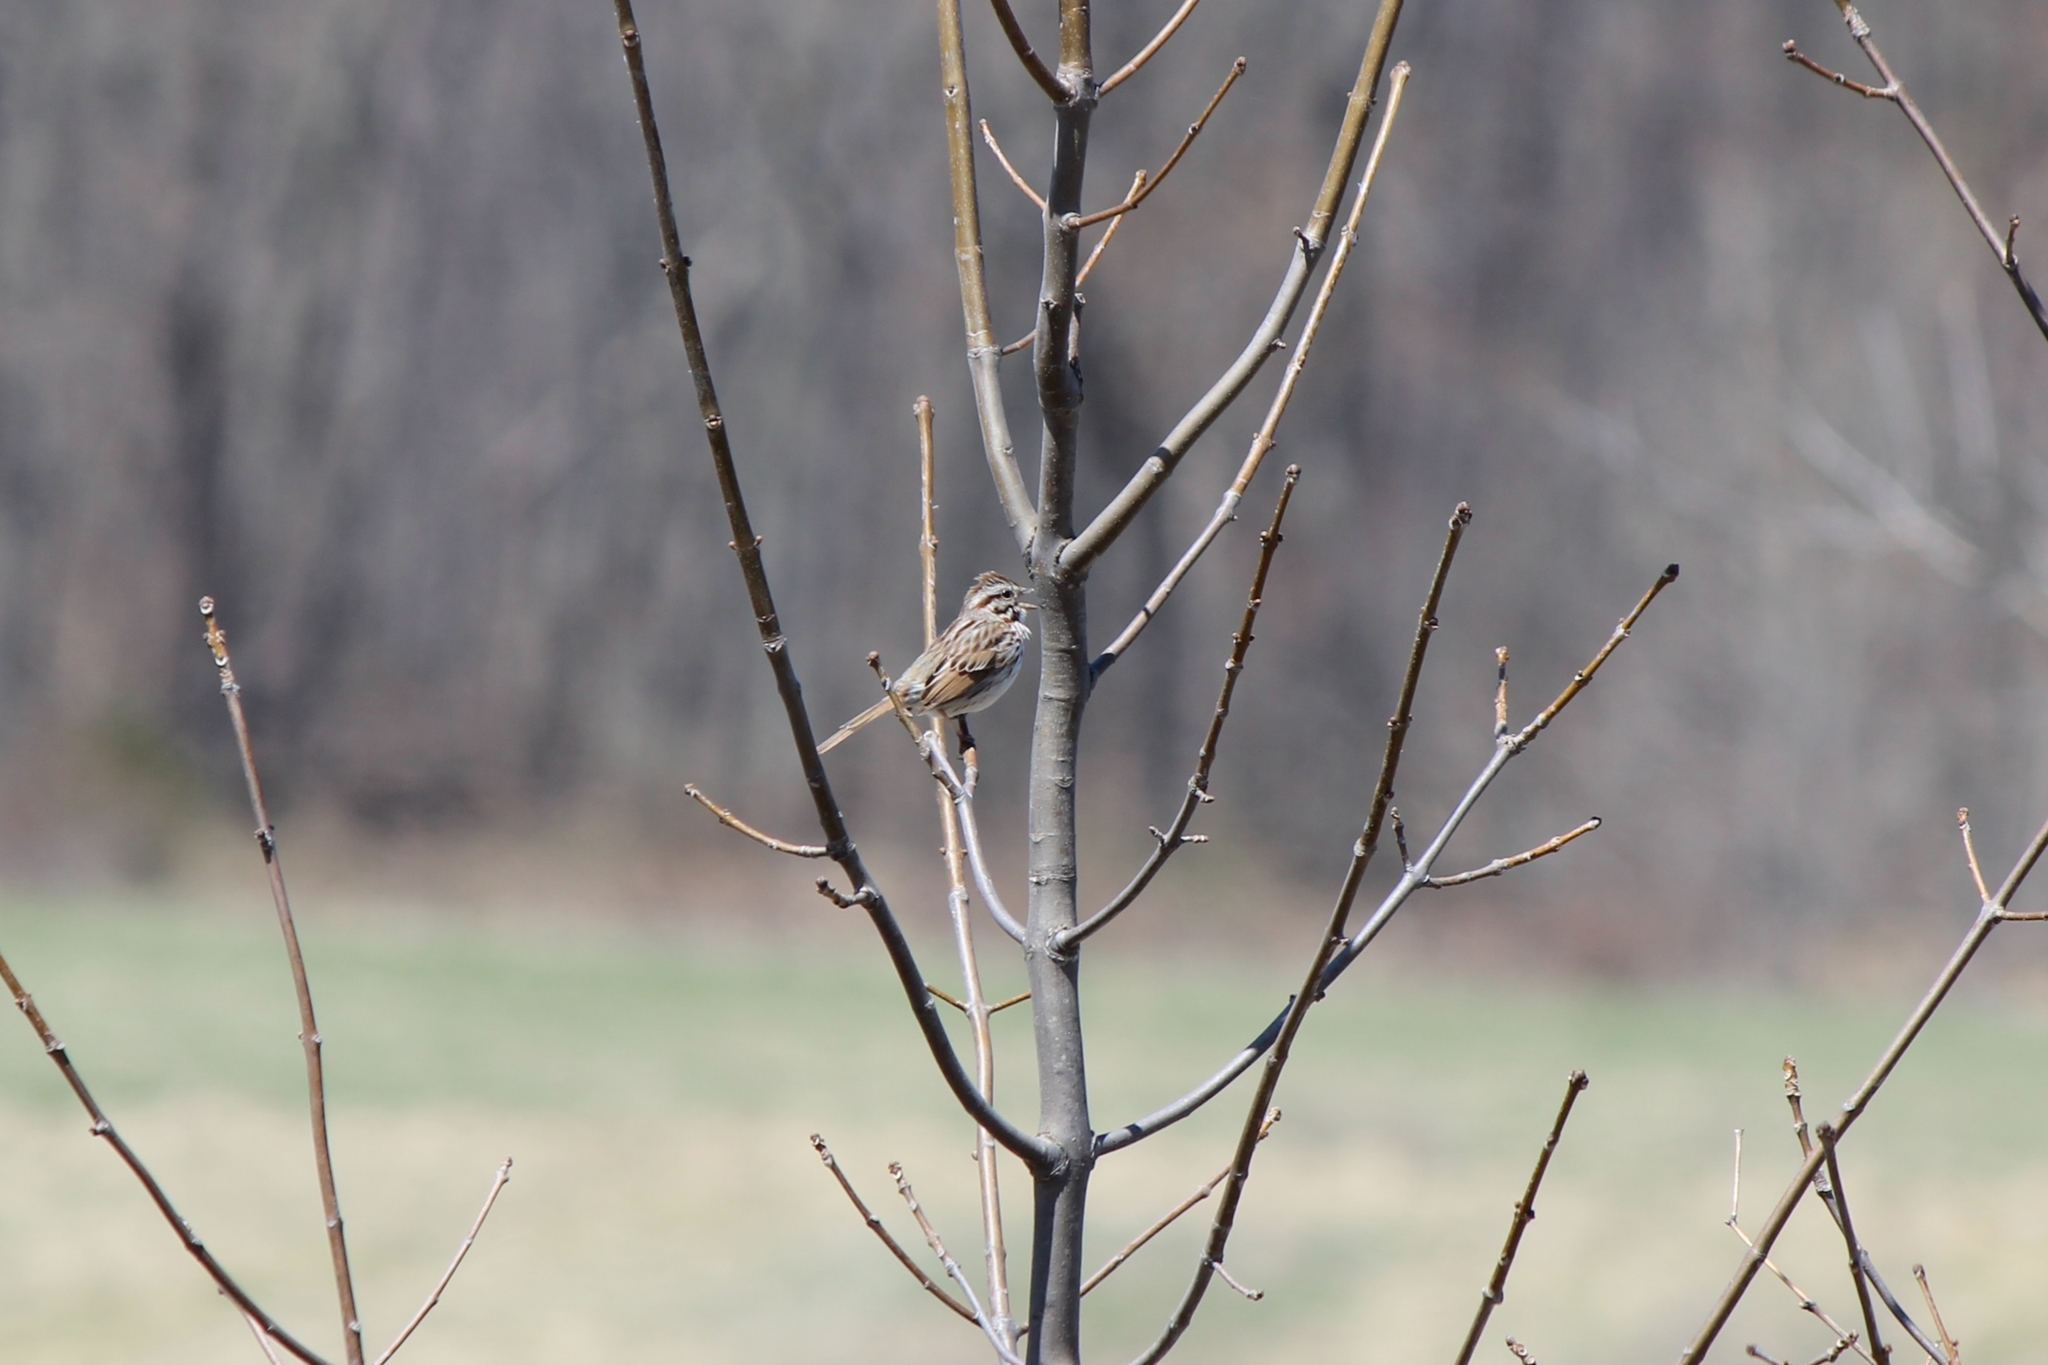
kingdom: Animalia
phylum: Chordata
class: Aves
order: Passeriformes
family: Passerellidae
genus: Melospiza
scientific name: Melospiza melodia
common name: Song sparrow
